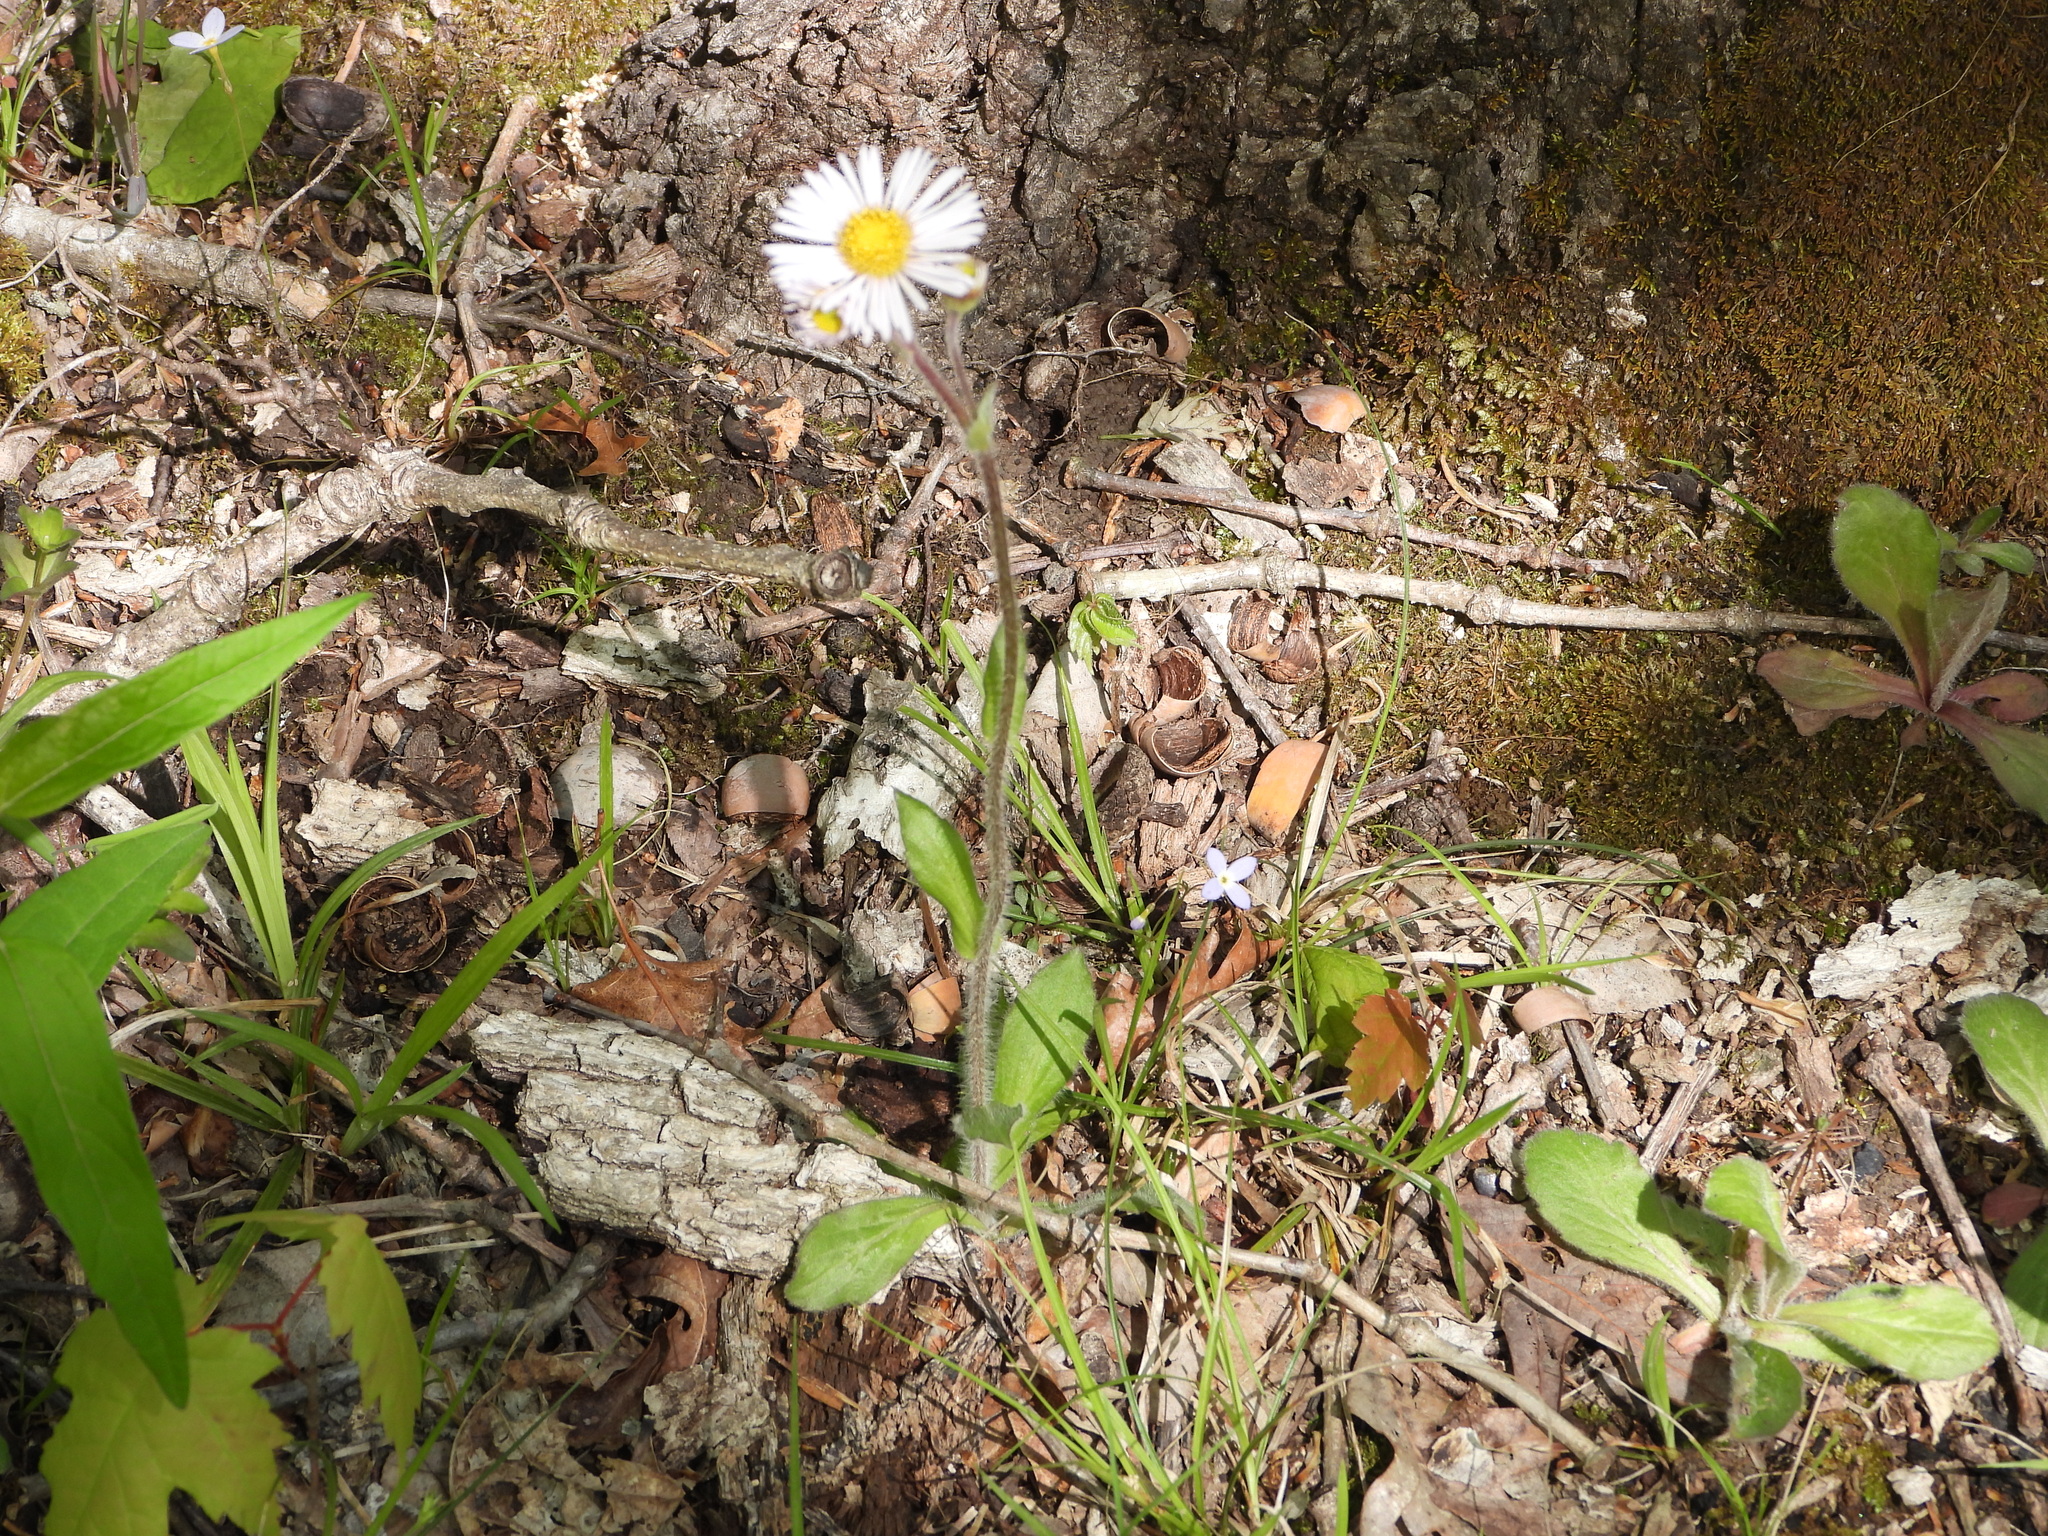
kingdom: Plantae
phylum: Tracheophyta
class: Magnoliopsida
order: Asterales
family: Asteraceae
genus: Erigeron
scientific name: Erigeron pulchellus
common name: Hairy fleabane
